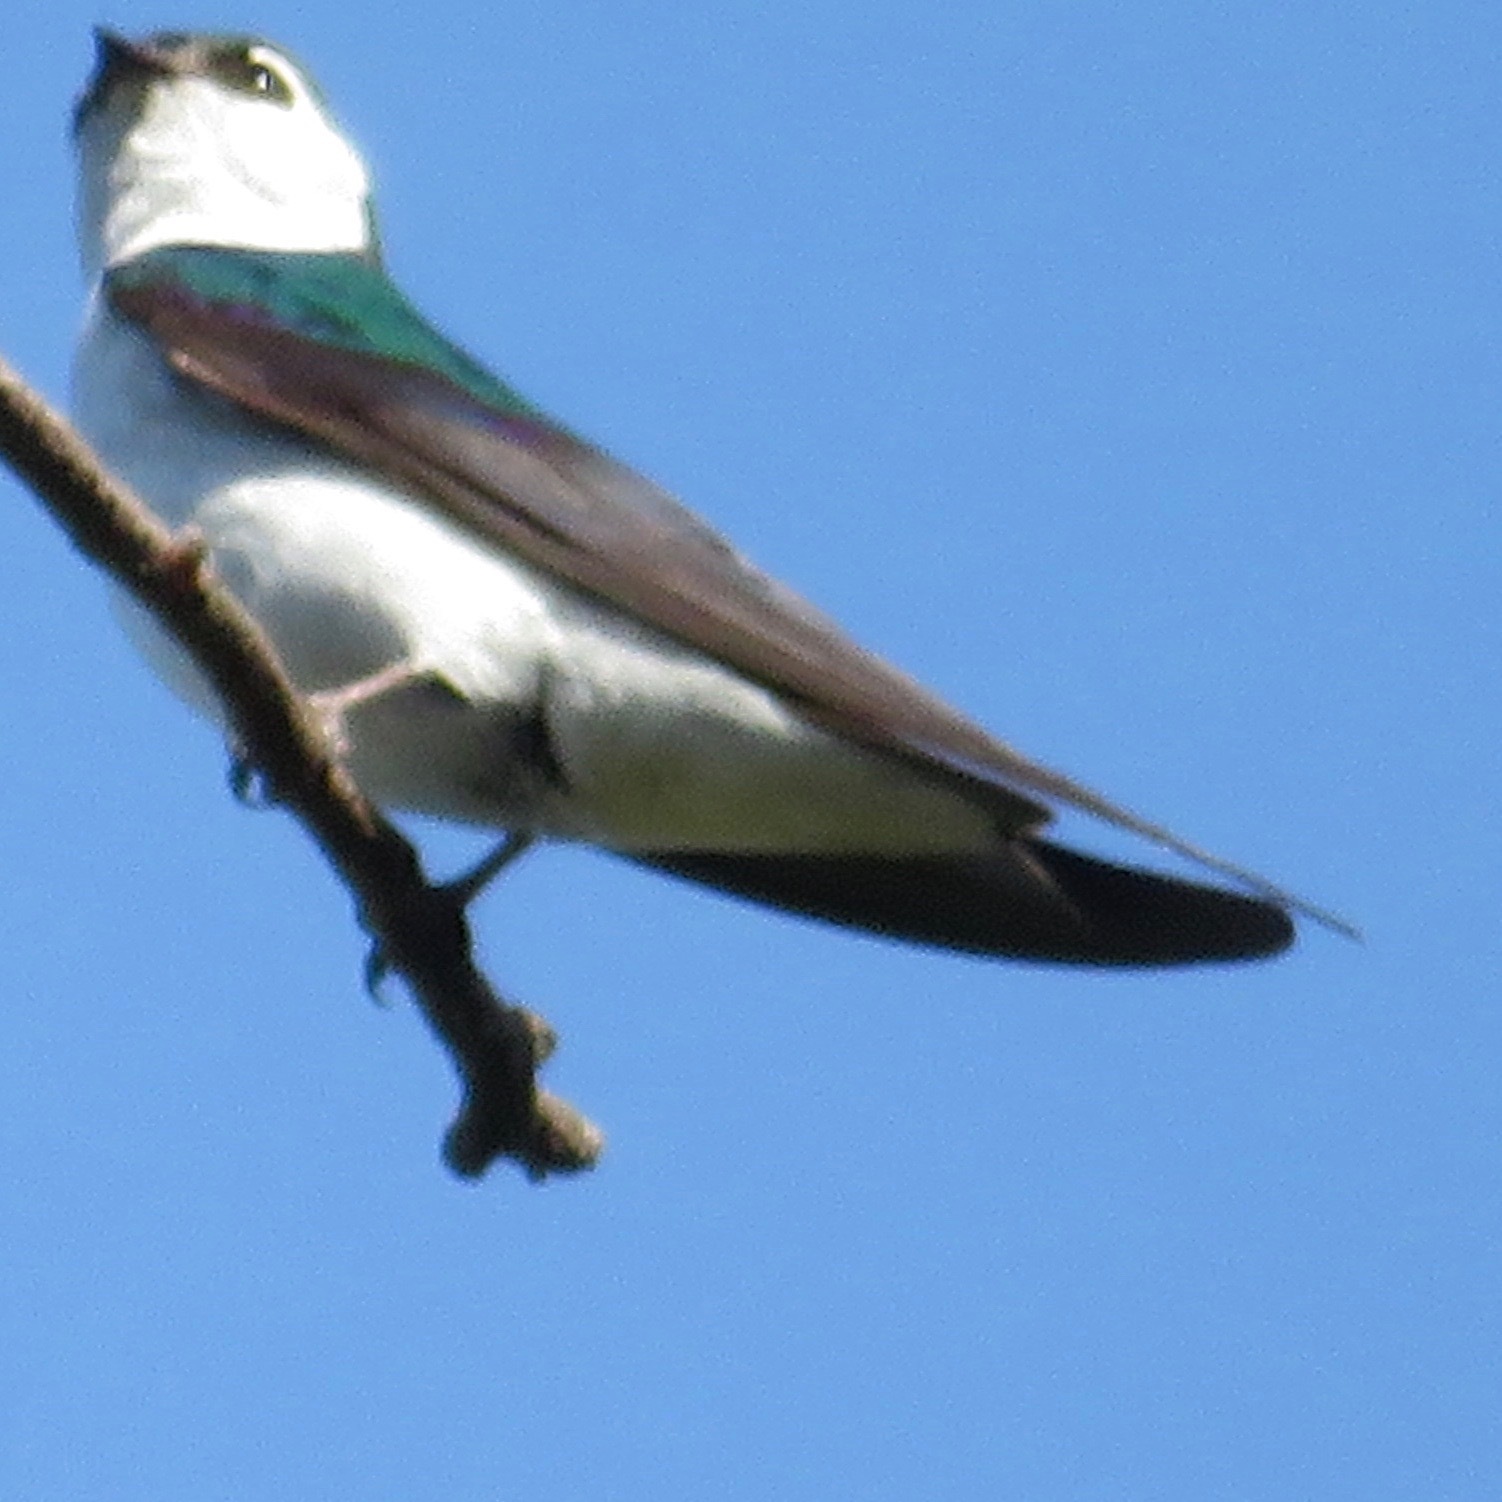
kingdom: Animalia
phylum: Chordata
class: Aves
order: Passeriformes
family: Hirundinidae
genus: Tachycineta
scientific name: Tachycineta thalassina
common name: Violet-green swallow
